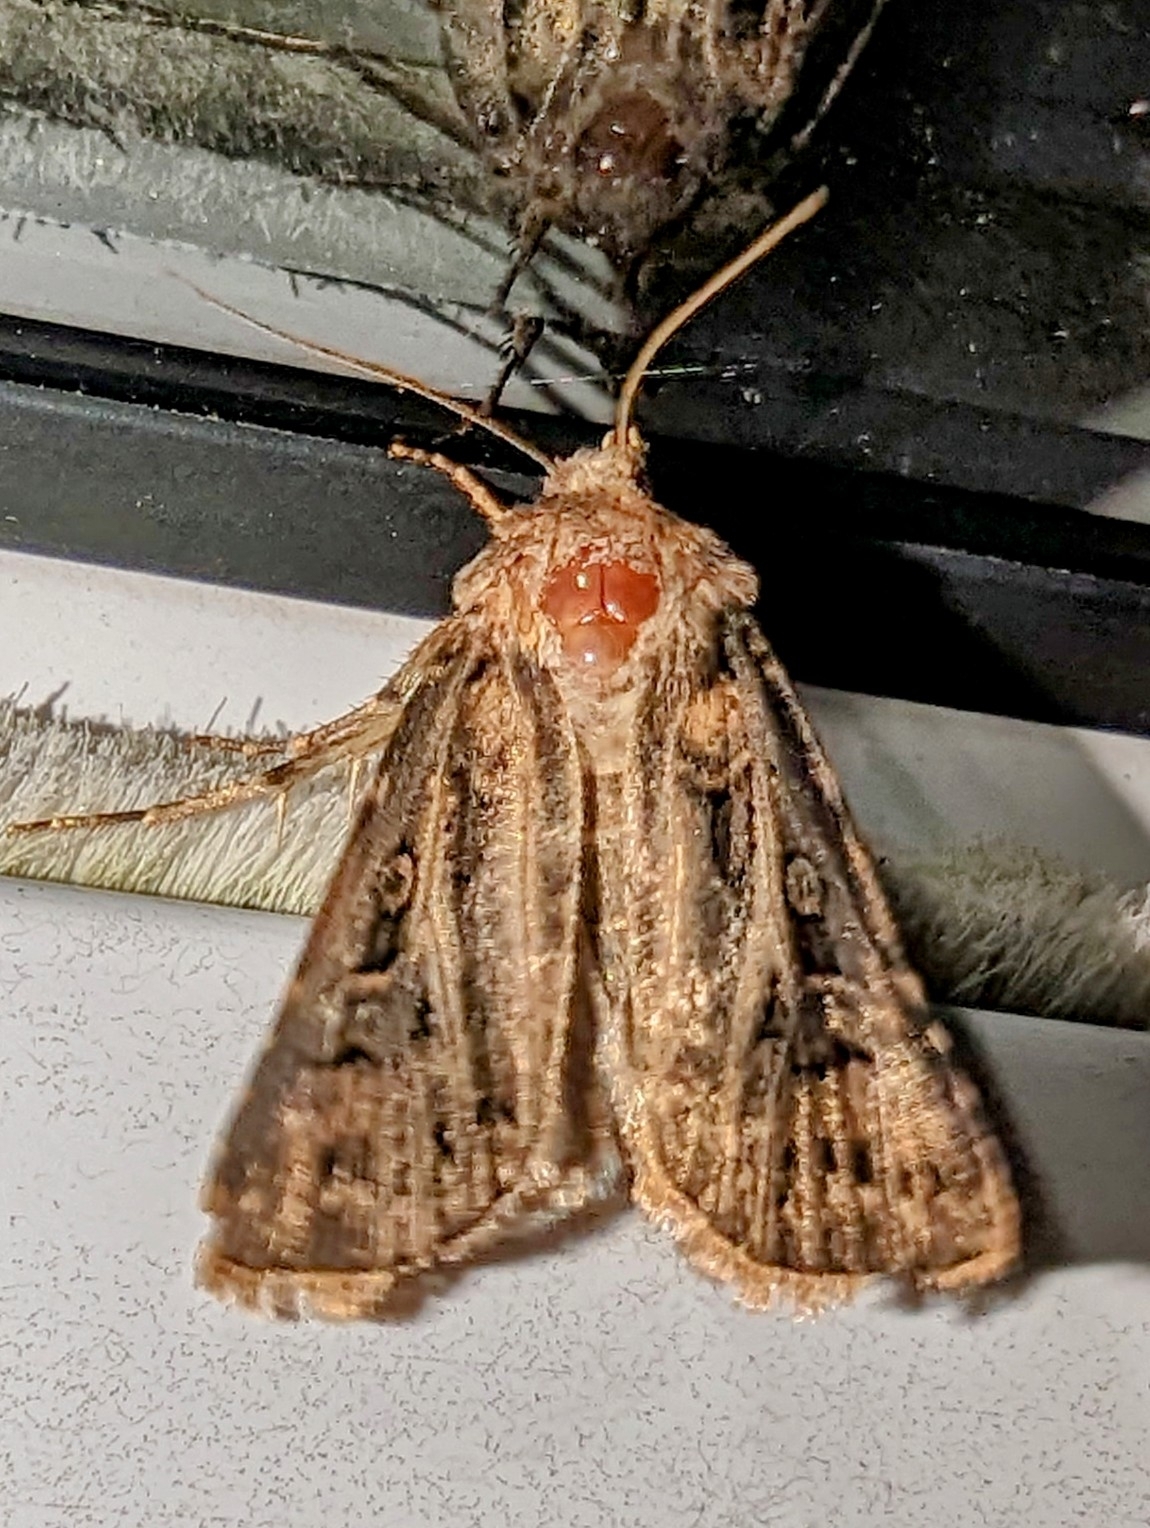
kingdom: Animalia
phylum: Arthropoda
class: Insecta
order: Lepidoptera
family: Noctuidae
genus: Agrotis
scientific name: Agrotis gladiaria
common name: Claybacked cutworm
